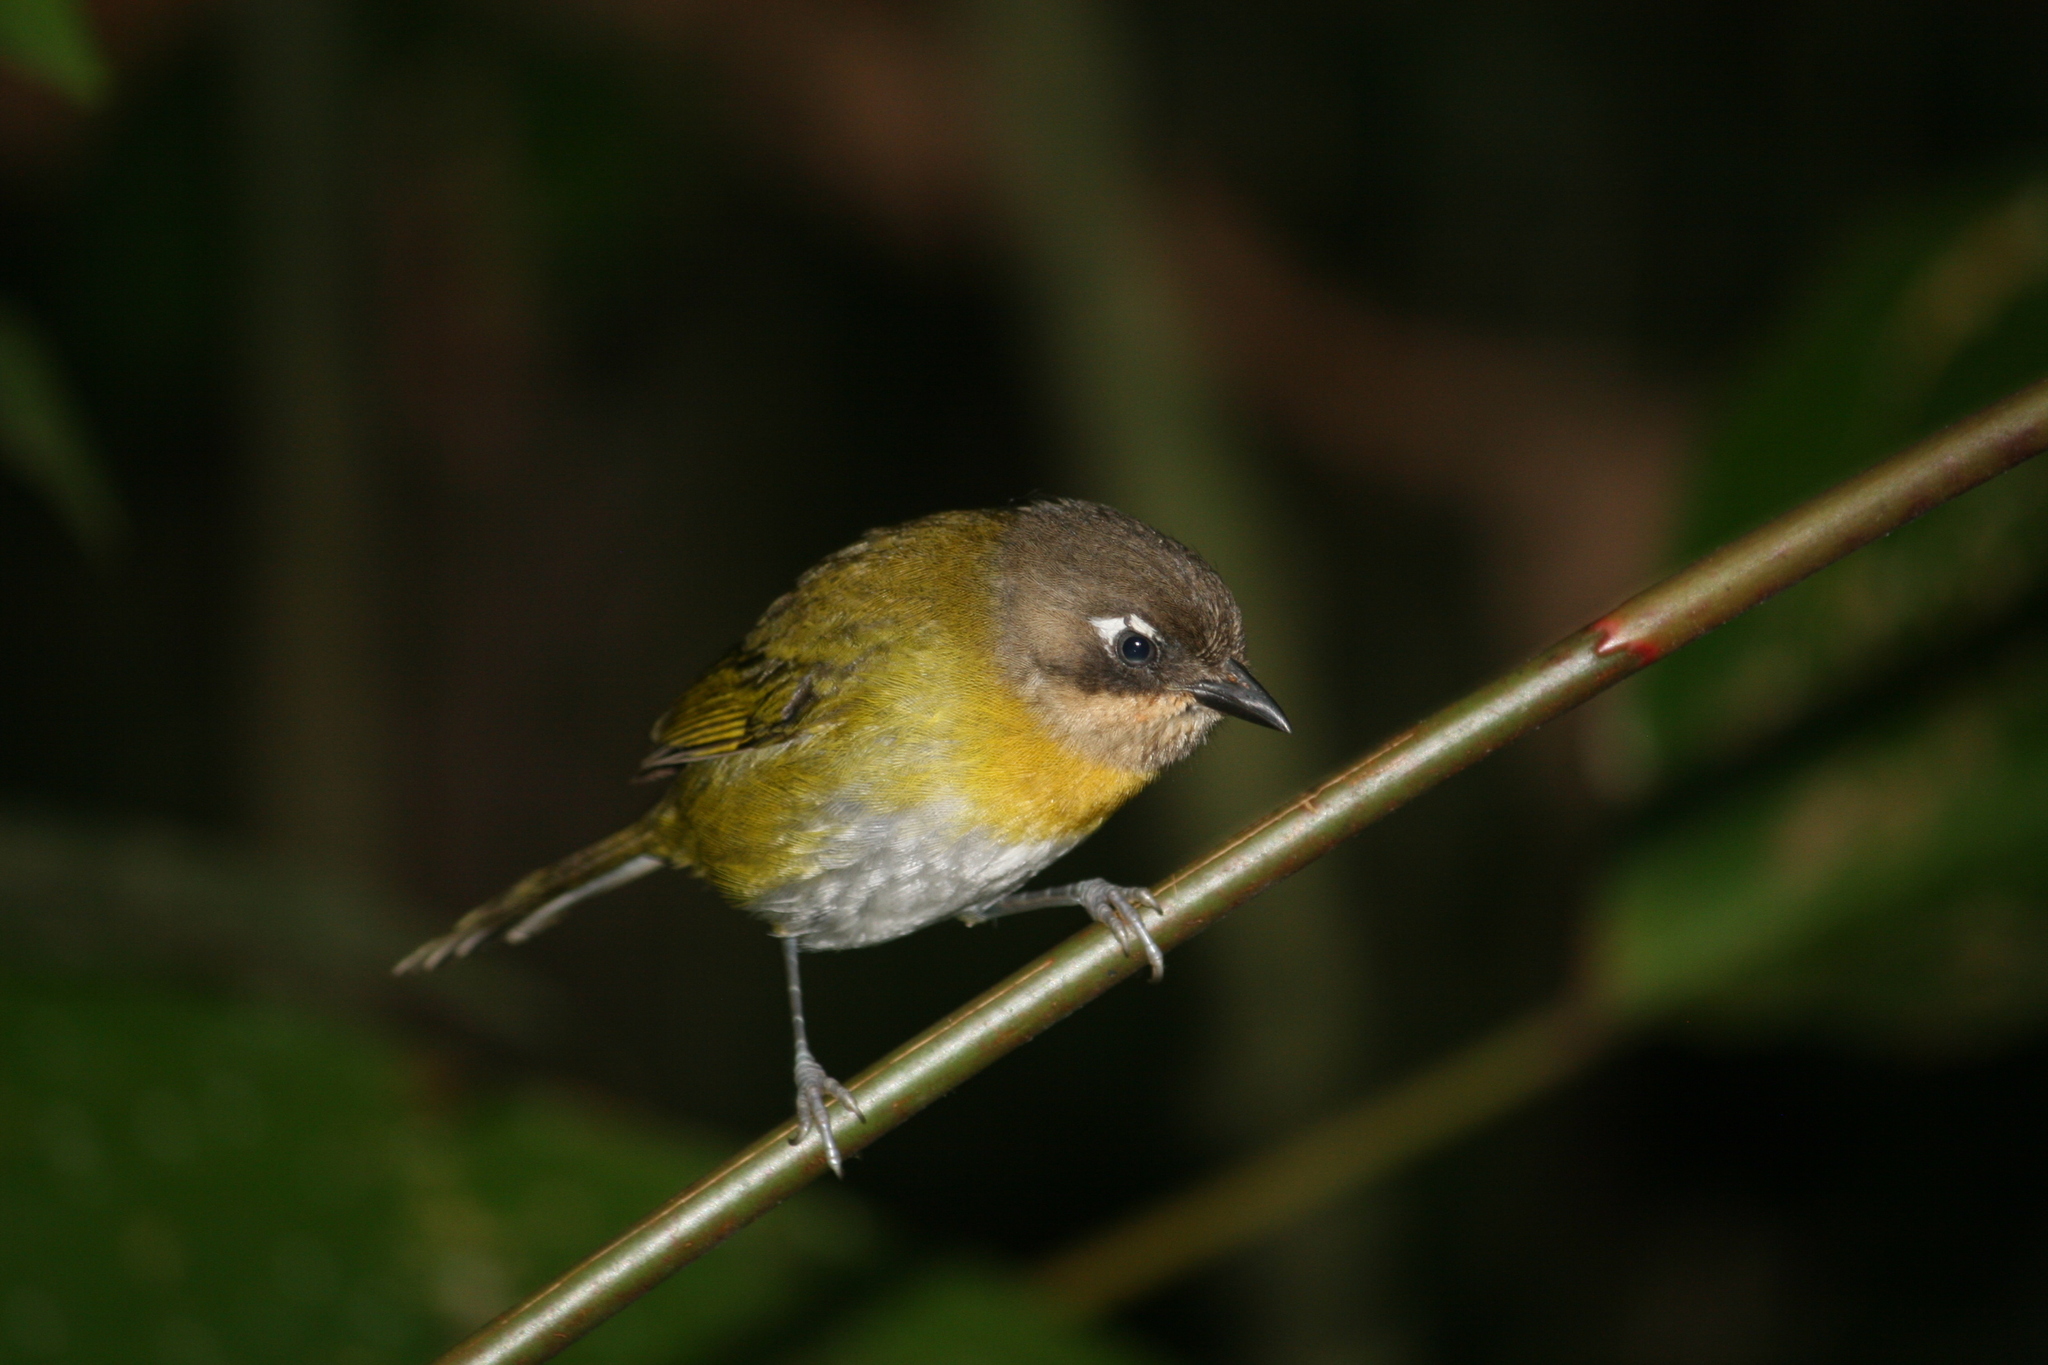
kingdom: Animalia
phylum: Chordata
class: Aves
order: Passeriformes
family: Passerellidae
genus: Chlorospingus
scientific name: Chlorospingus flavopectus
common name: Common chlorospingus
